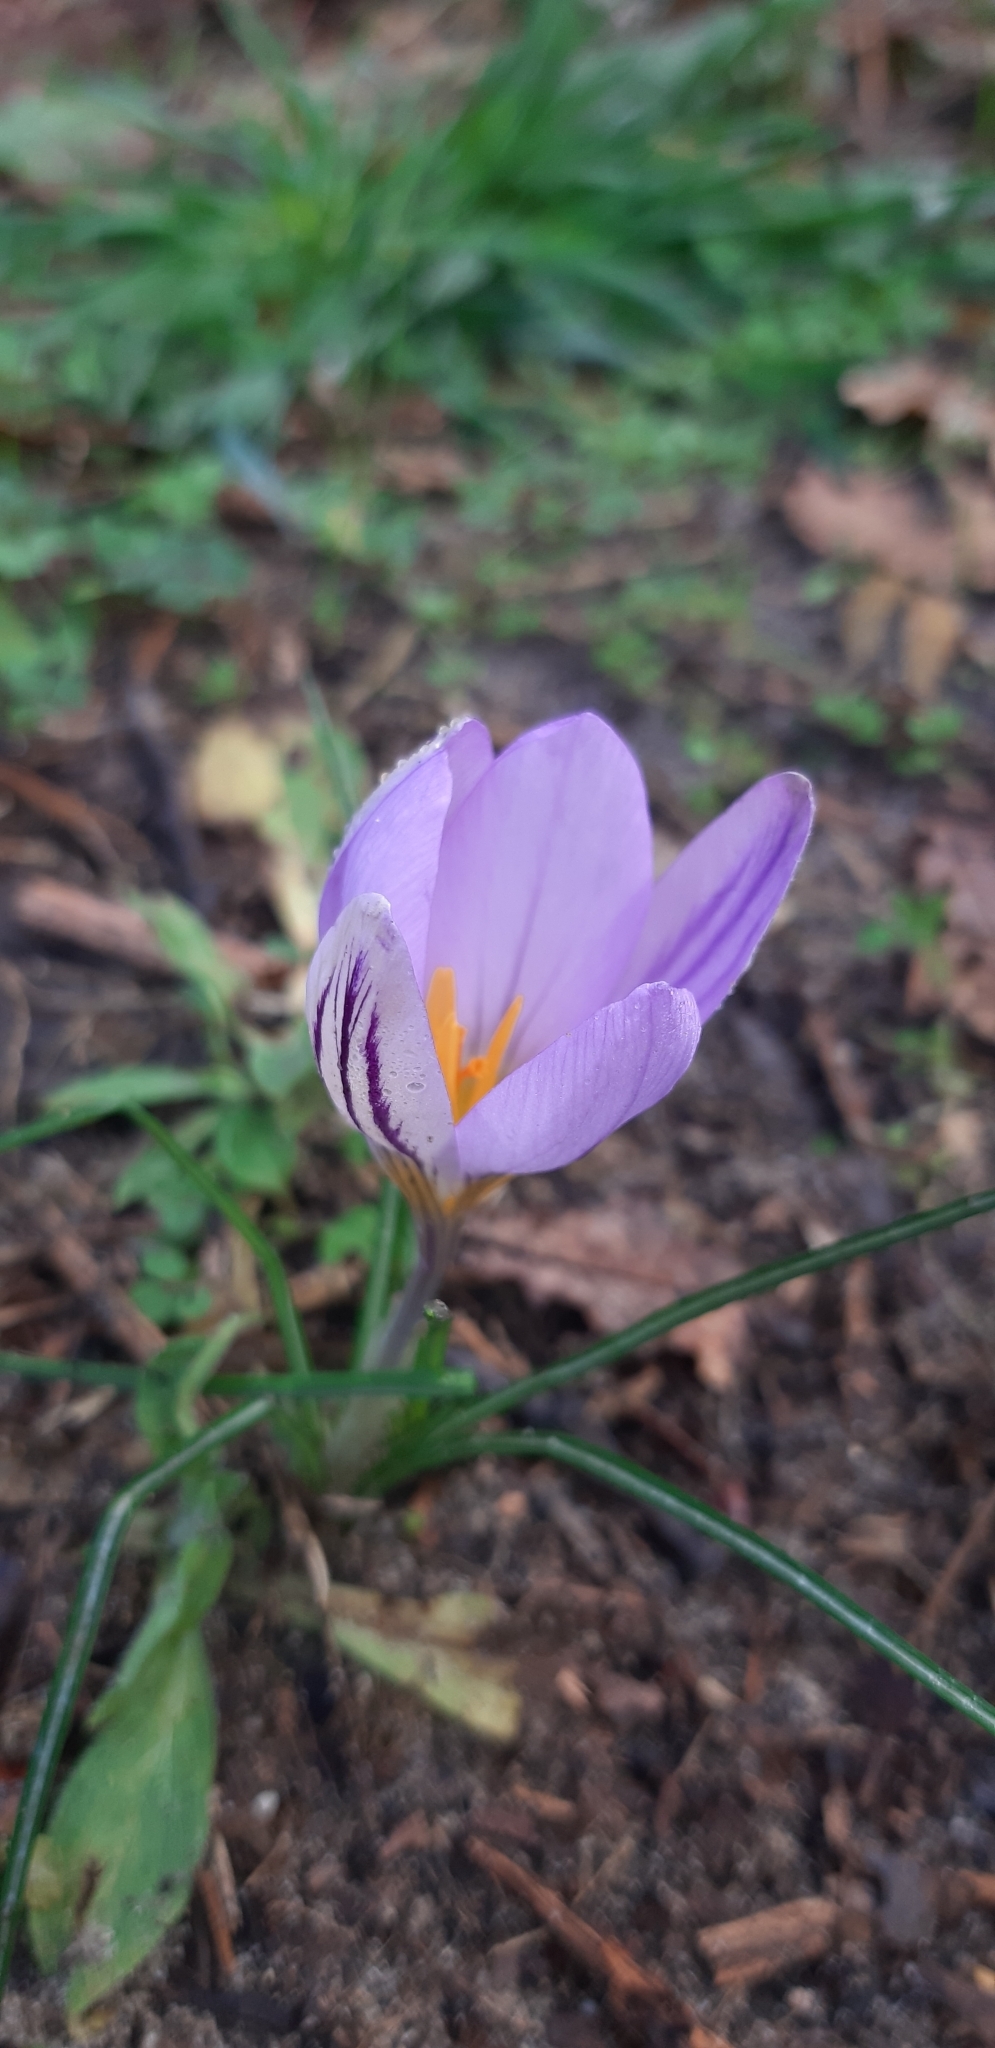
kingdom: Plantae
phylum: Tracheophyta
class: Liliopsida
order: Asparagales
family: Iridaceae
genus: Crocus
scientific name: Crocus biflorus
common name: Silvery crocus
